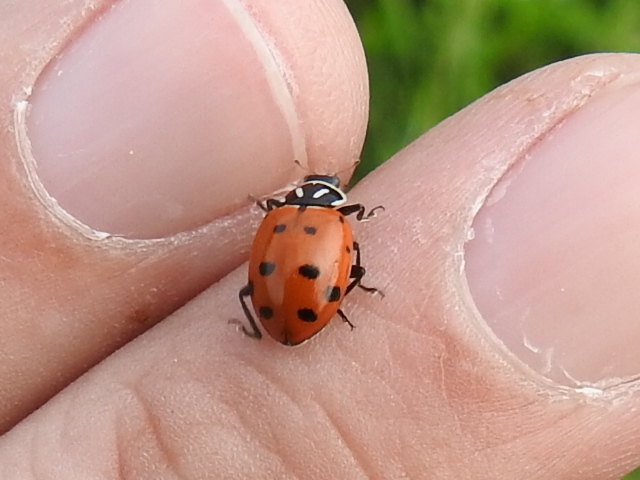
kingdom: Animalia
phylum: Arthropoda
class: Insecta
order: Coleoptera
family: Coccinellidae
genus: Hippodamia
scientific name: Hippodamia convergens
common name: Convergent lady beetle
